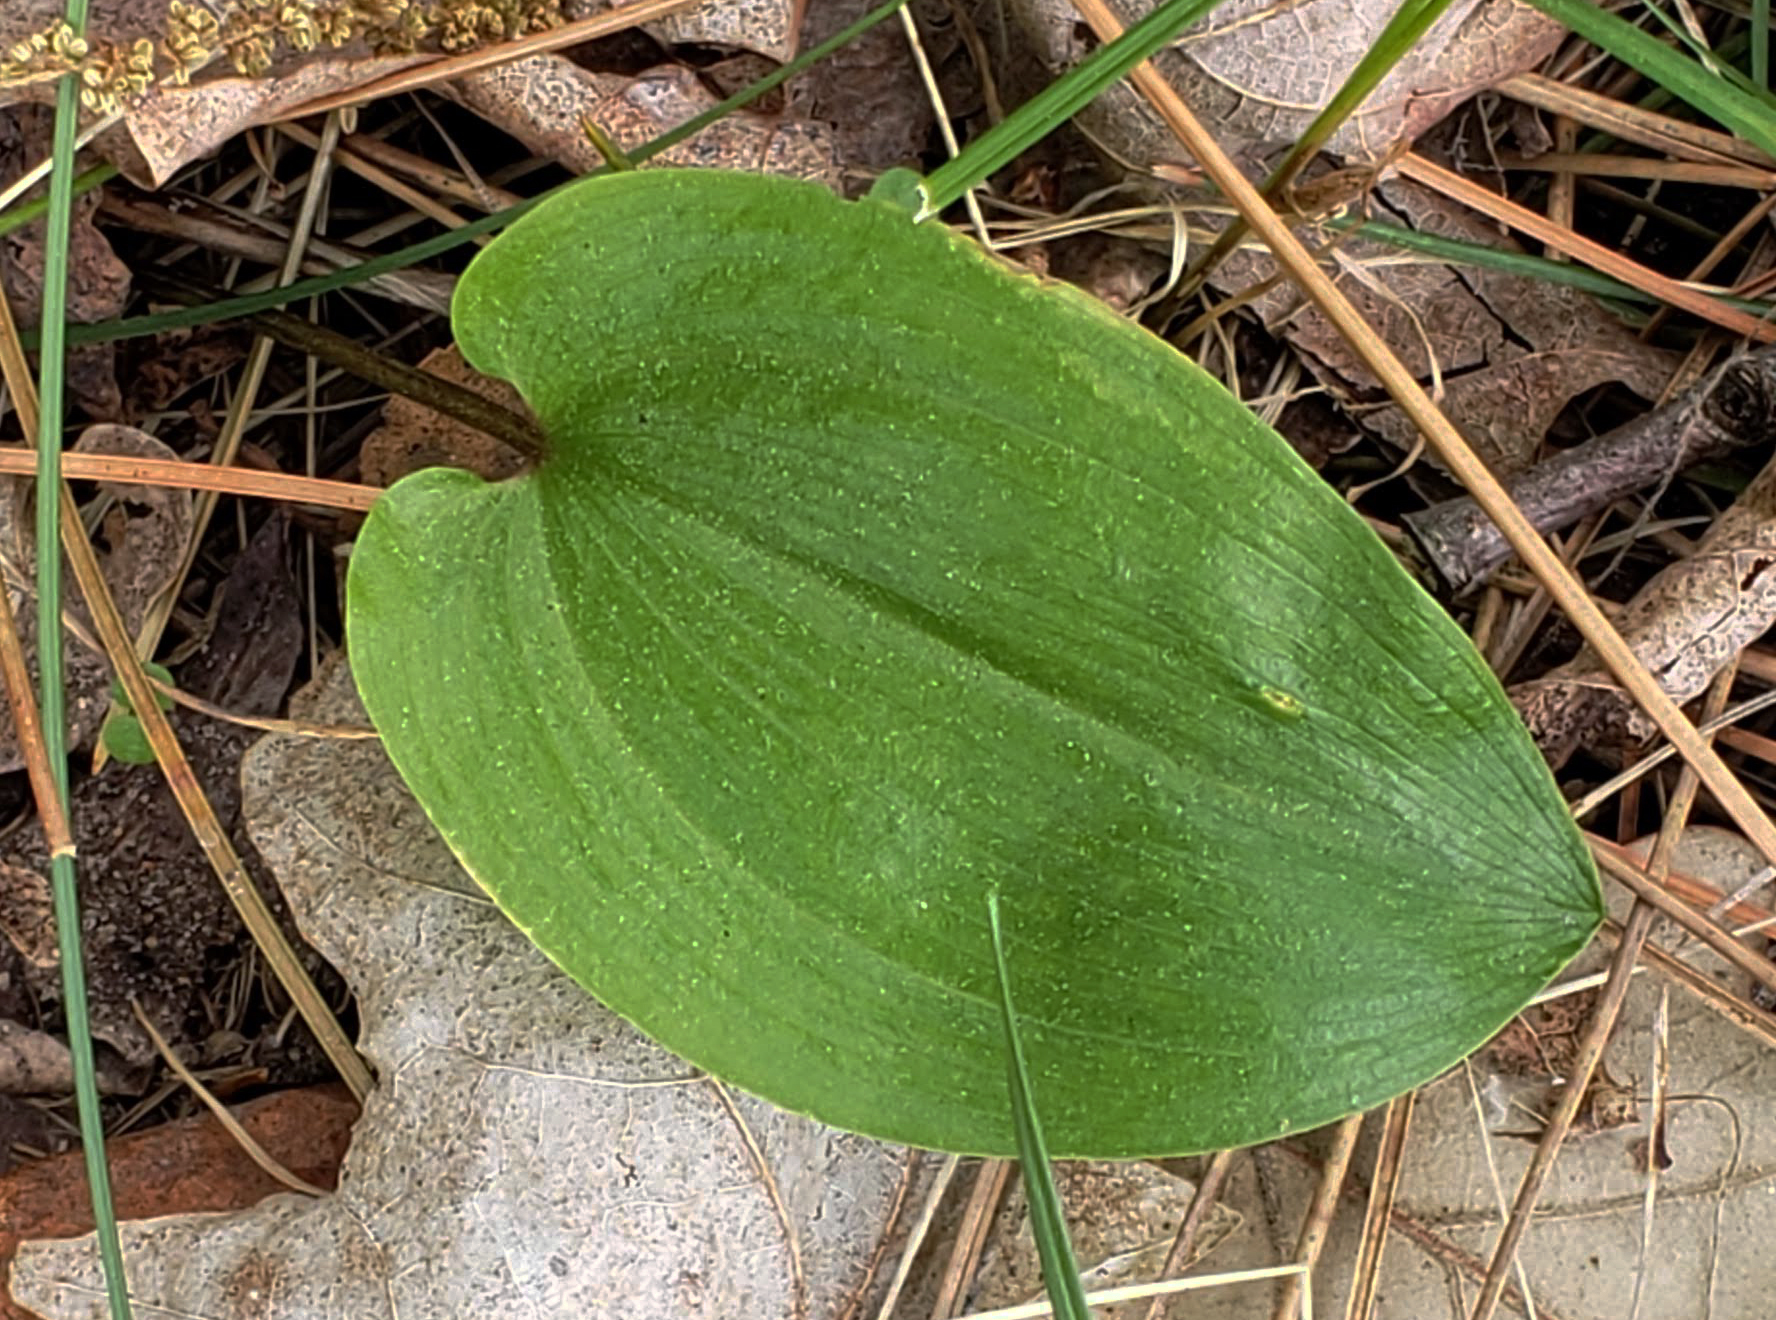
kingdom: Plantae
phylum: Tracheophyta
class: Liliopsida
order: Asparagales
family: Asparagaceae
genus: Maianthemum
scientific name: Maianthemum canadense
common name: False lily-of-the-valley
